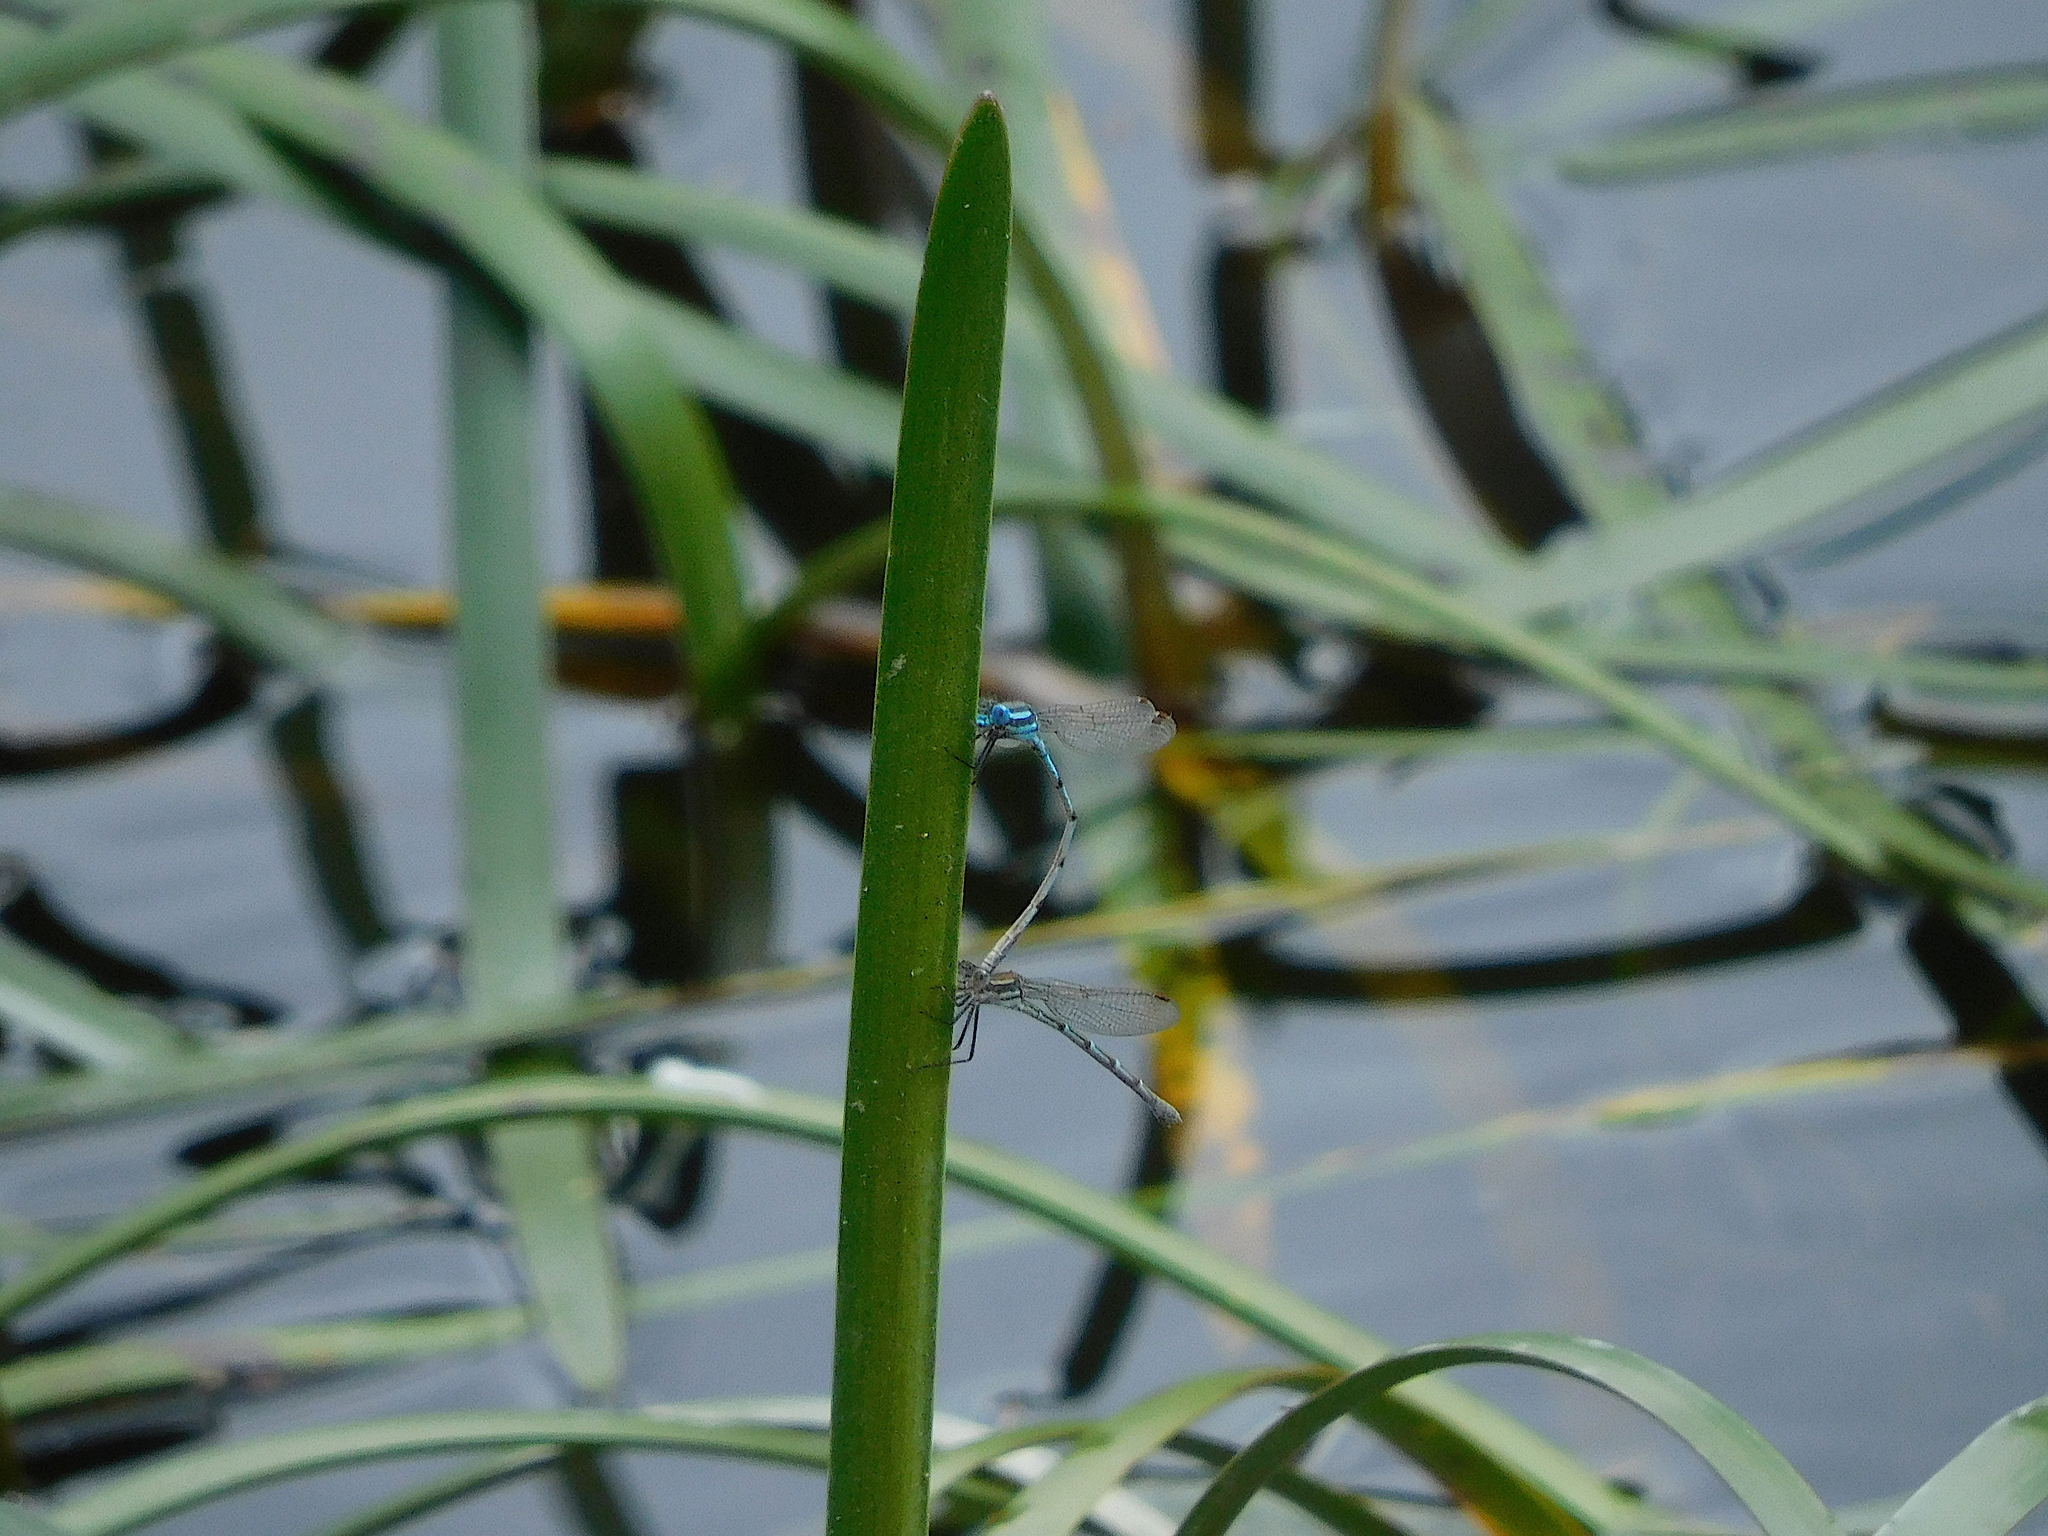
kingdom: Animalia
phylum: Arthropoda
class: Insecta
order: Odonata
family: Lestidae
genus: Austrolestes
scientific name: Austrolestes annulosus
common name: Blue ringtail
